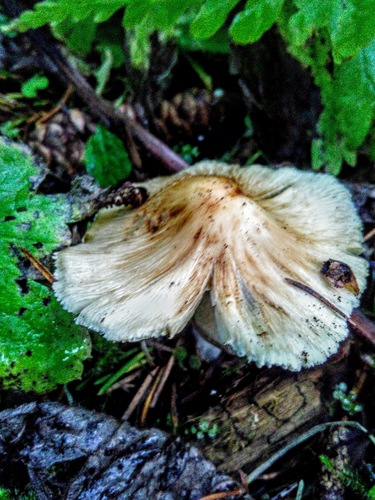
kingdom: Fungi
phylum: Basidiomycota
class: Agaricomycetes
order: Agaricales
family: Inocybaceae
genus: Inocybe
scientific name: Inocybe
